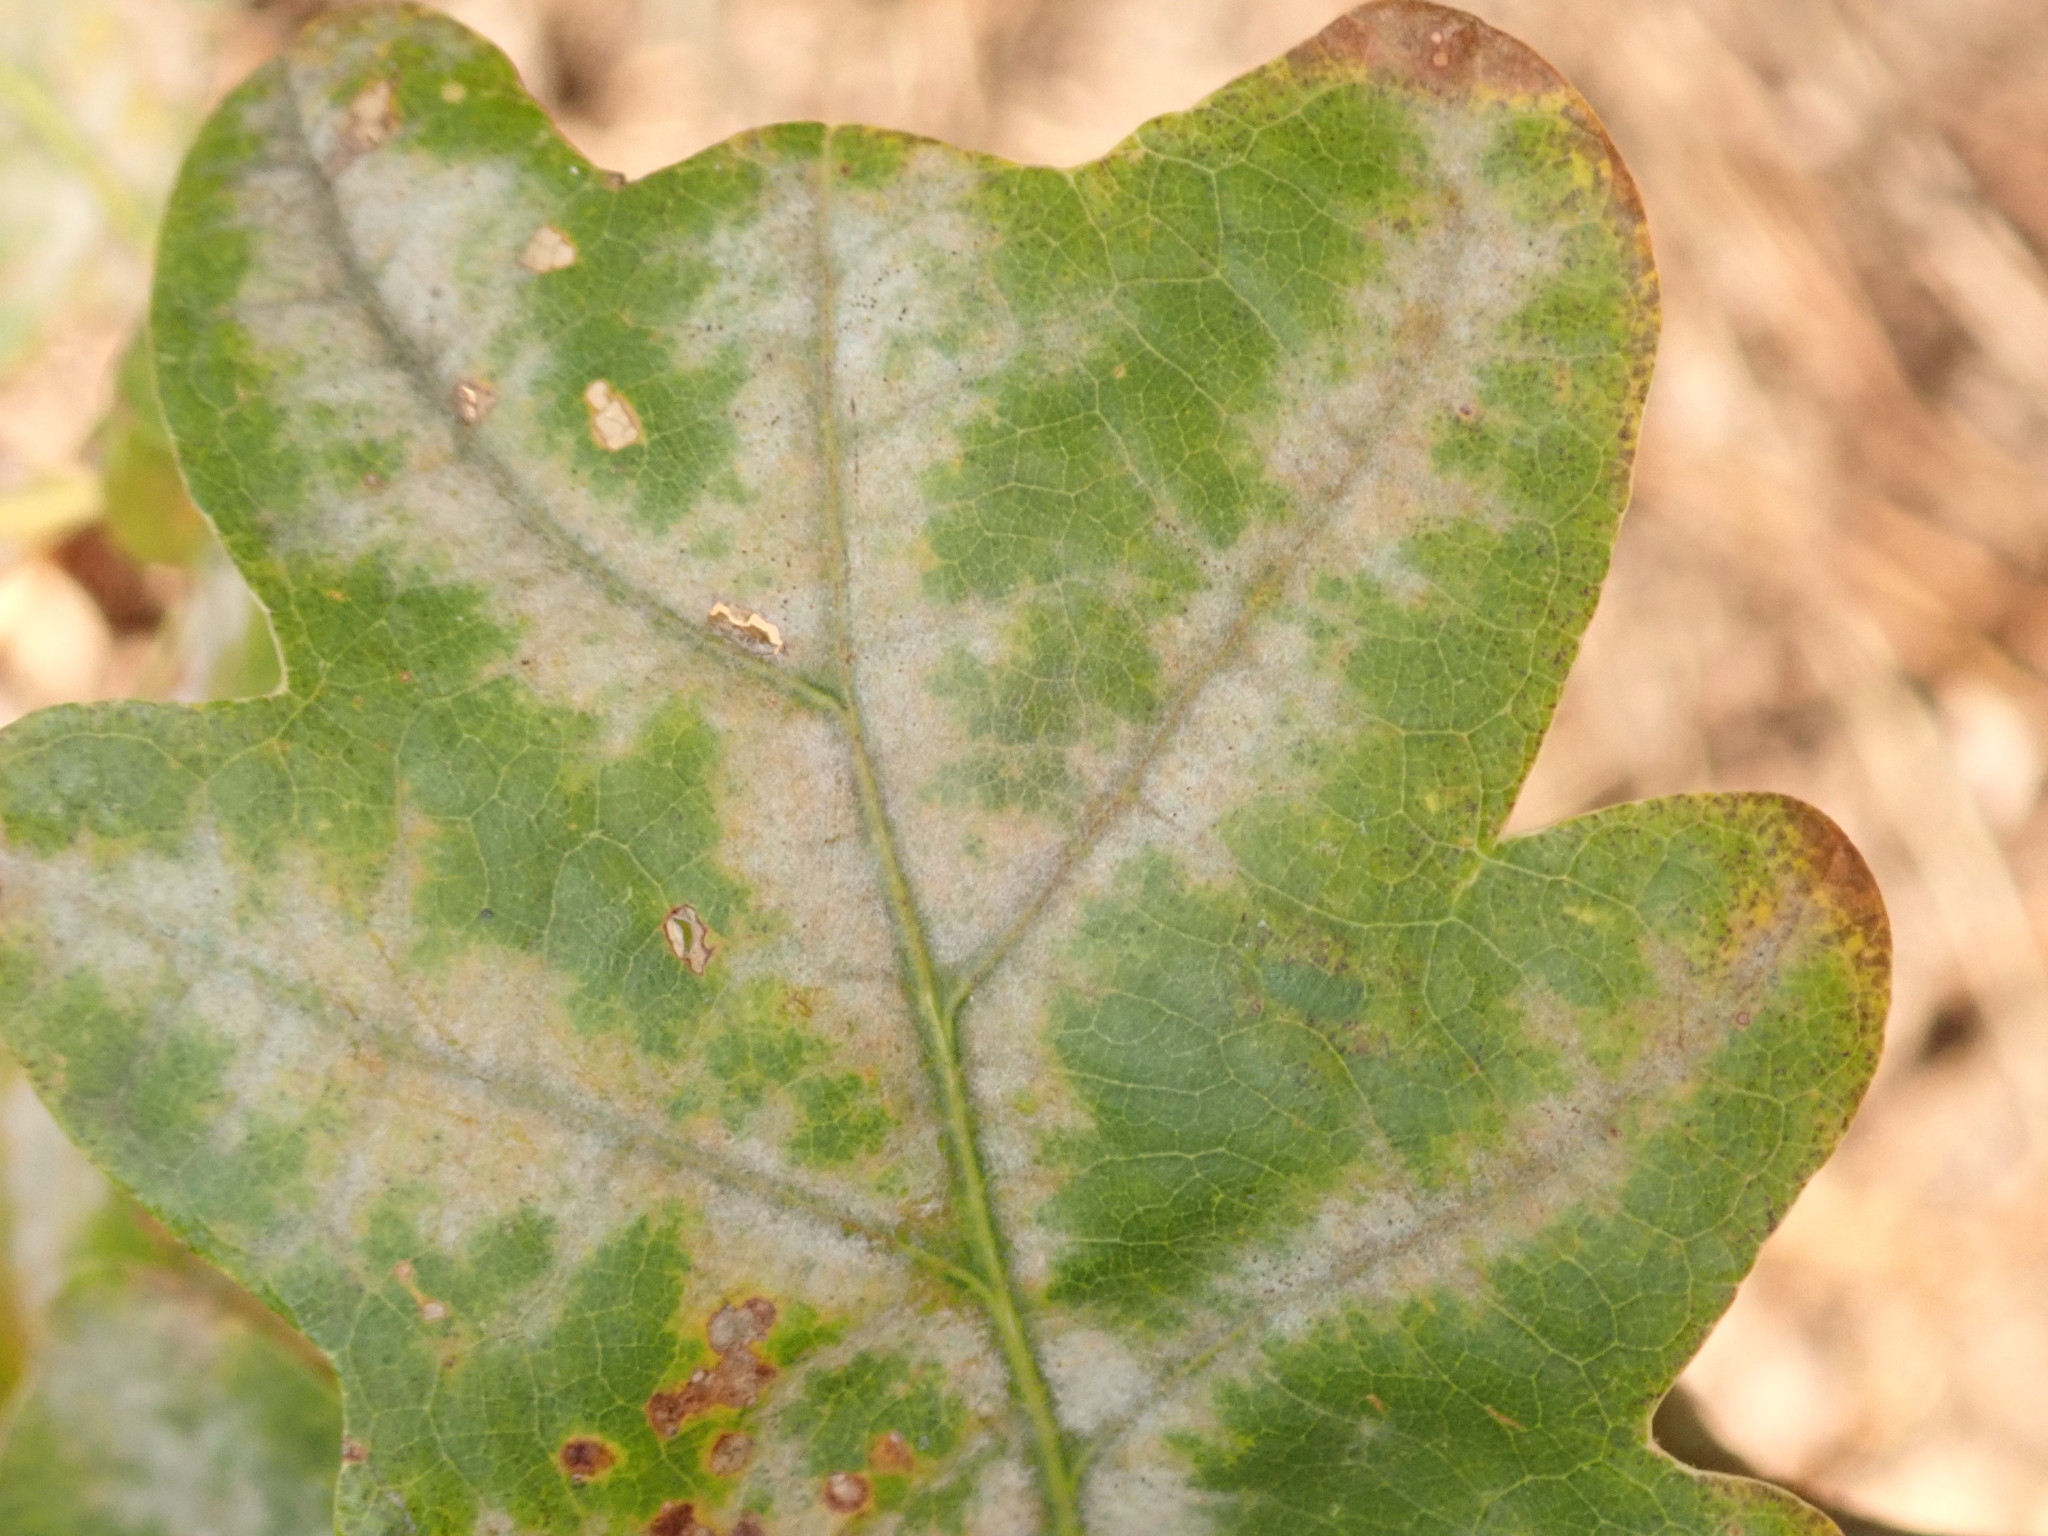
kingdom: Fungi
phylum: Ascomycota
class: Leotiomycetes
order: Helotiales
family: Erysiphaceae
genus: Erysiphe
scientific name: Erysiphe
